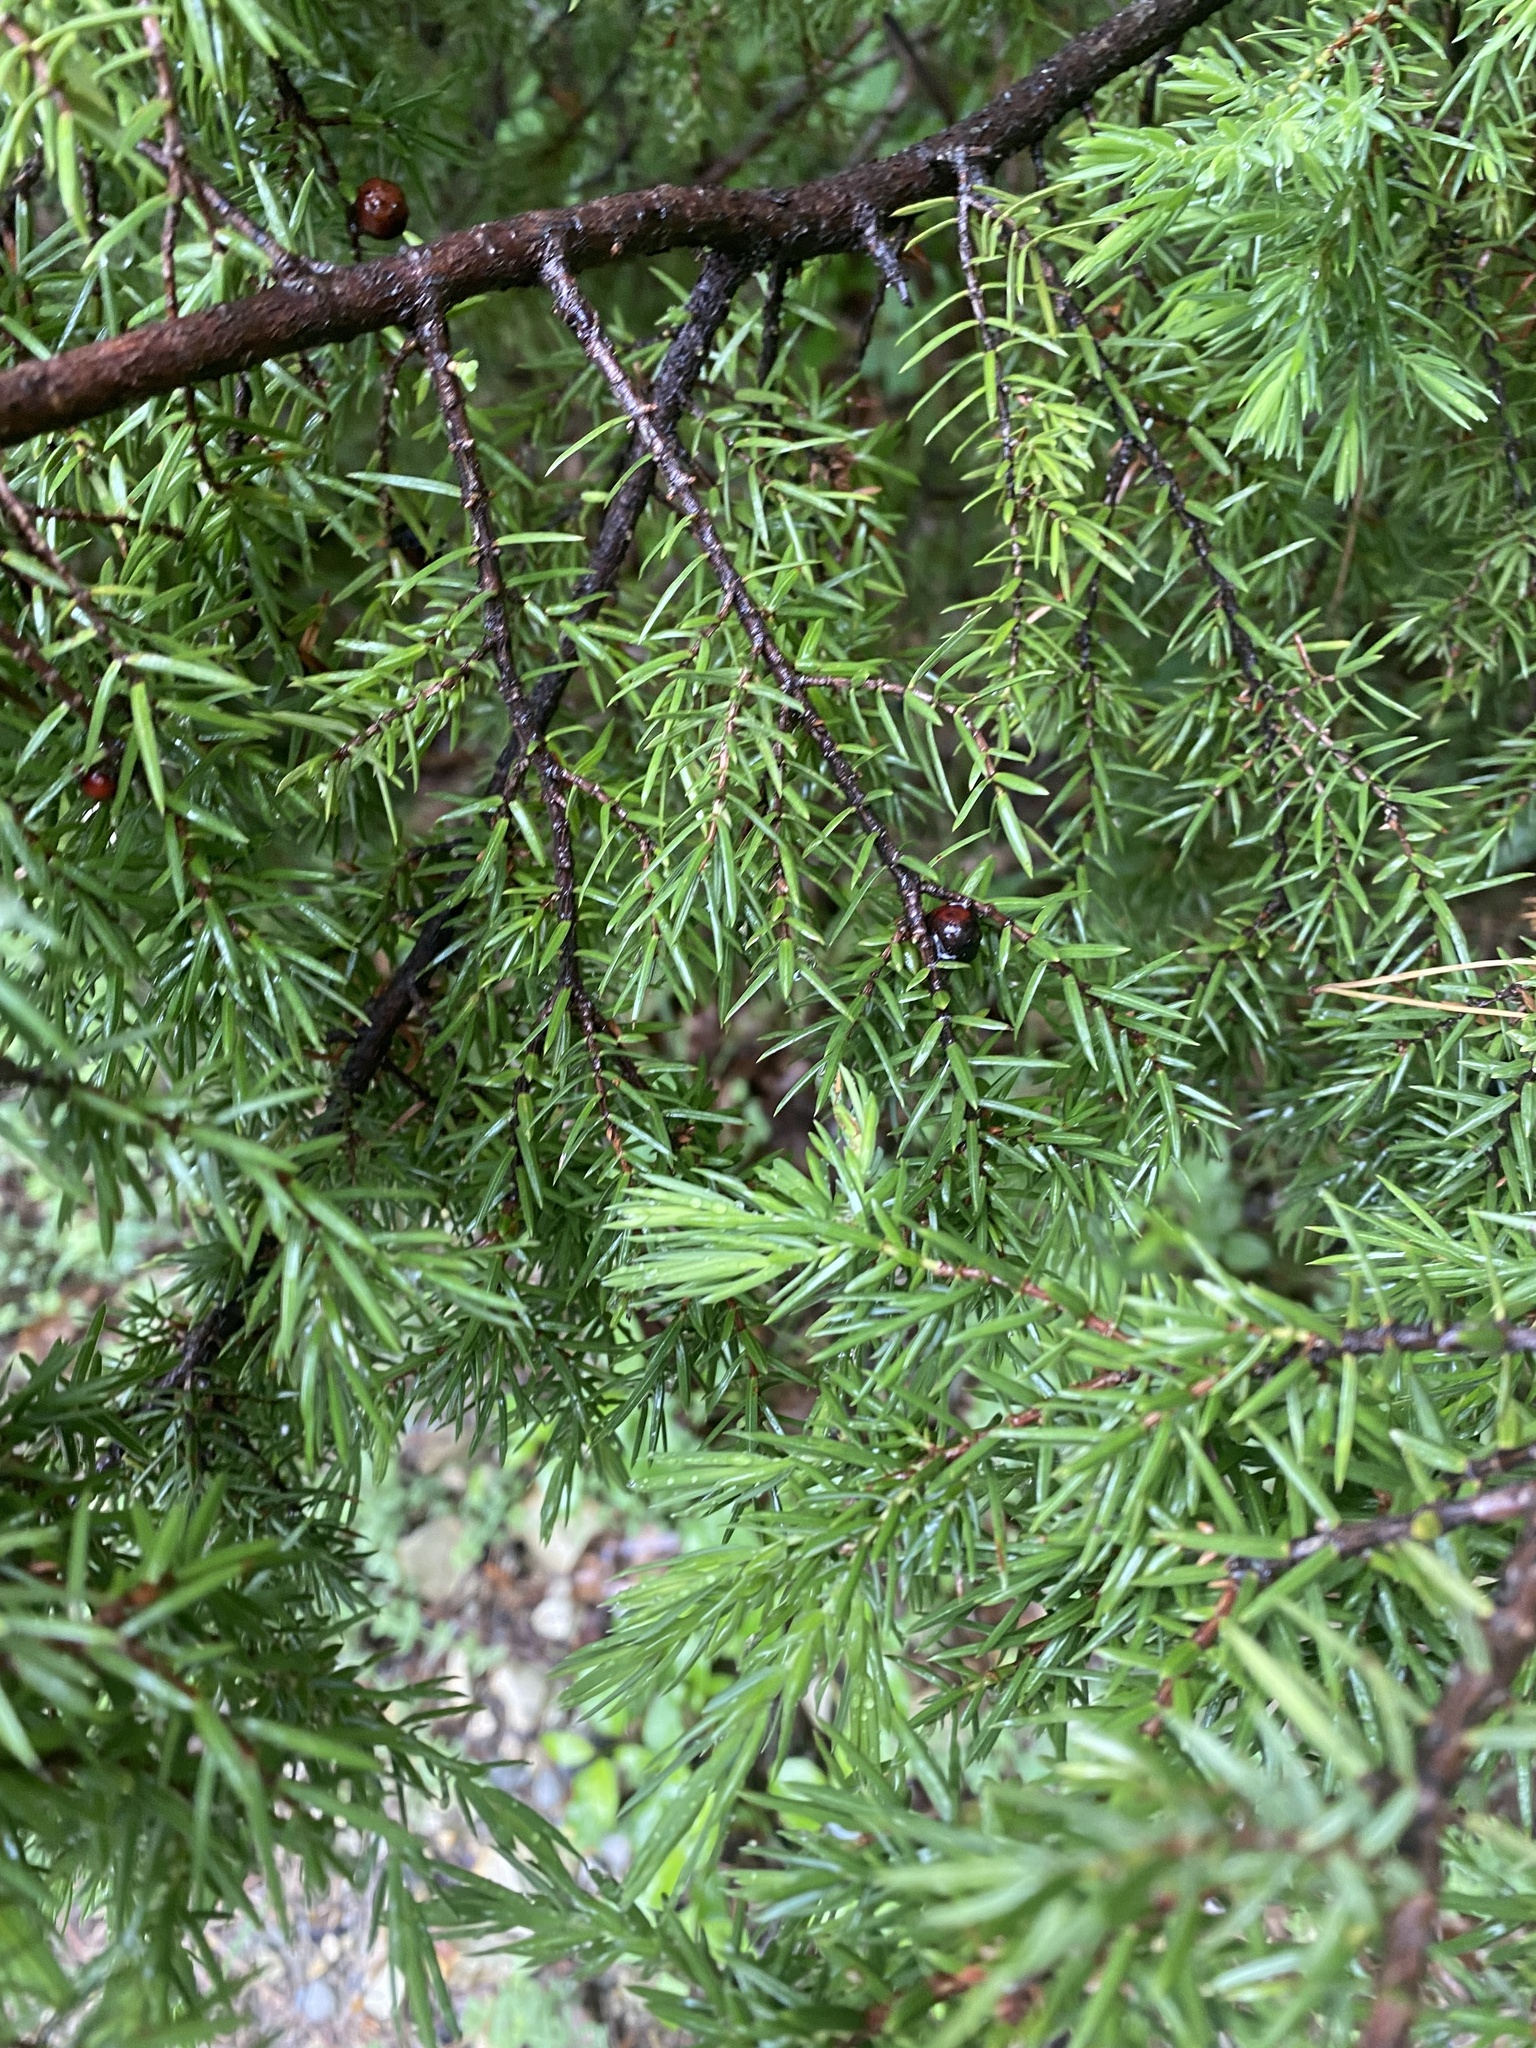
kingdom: Plantae
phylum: Tracheophyta
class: Pinopsida
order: Pinales
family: Cupressaceae
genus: Juniperus
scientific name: Juniperus oxycedrus
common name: Prickly juniper
